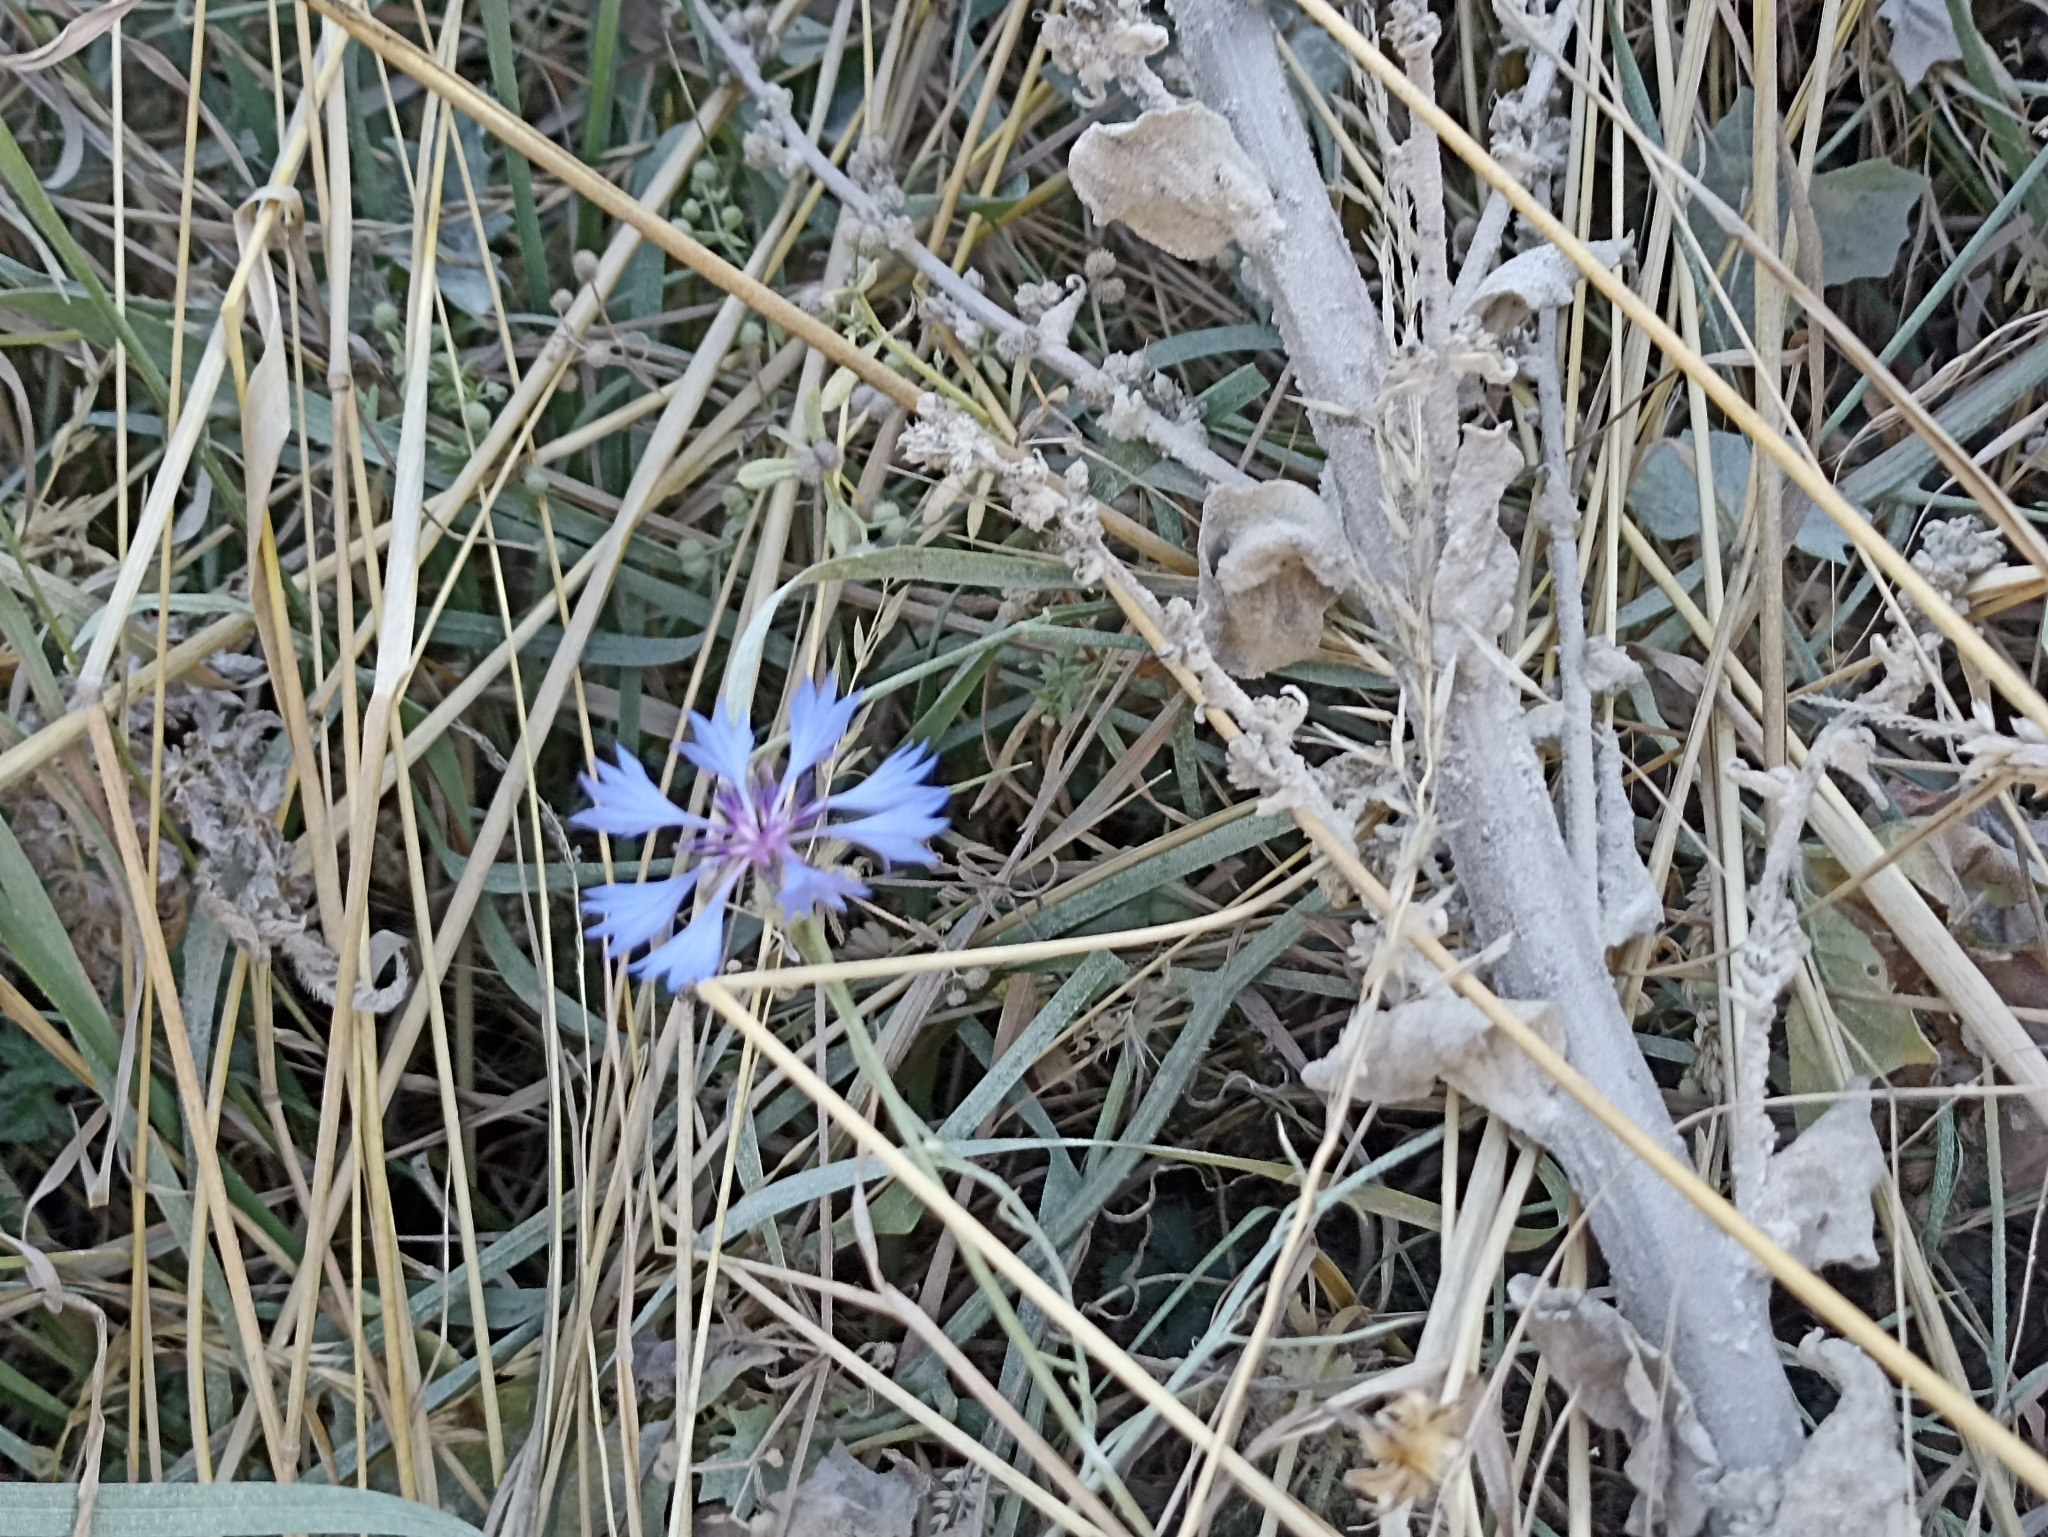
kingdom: Plantae
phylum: Tracheophyta
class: Magnoliopsida
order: Asterales
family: Asteraceae
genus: Centaurea
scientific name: Centaurea cyanus
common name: Cornflower
